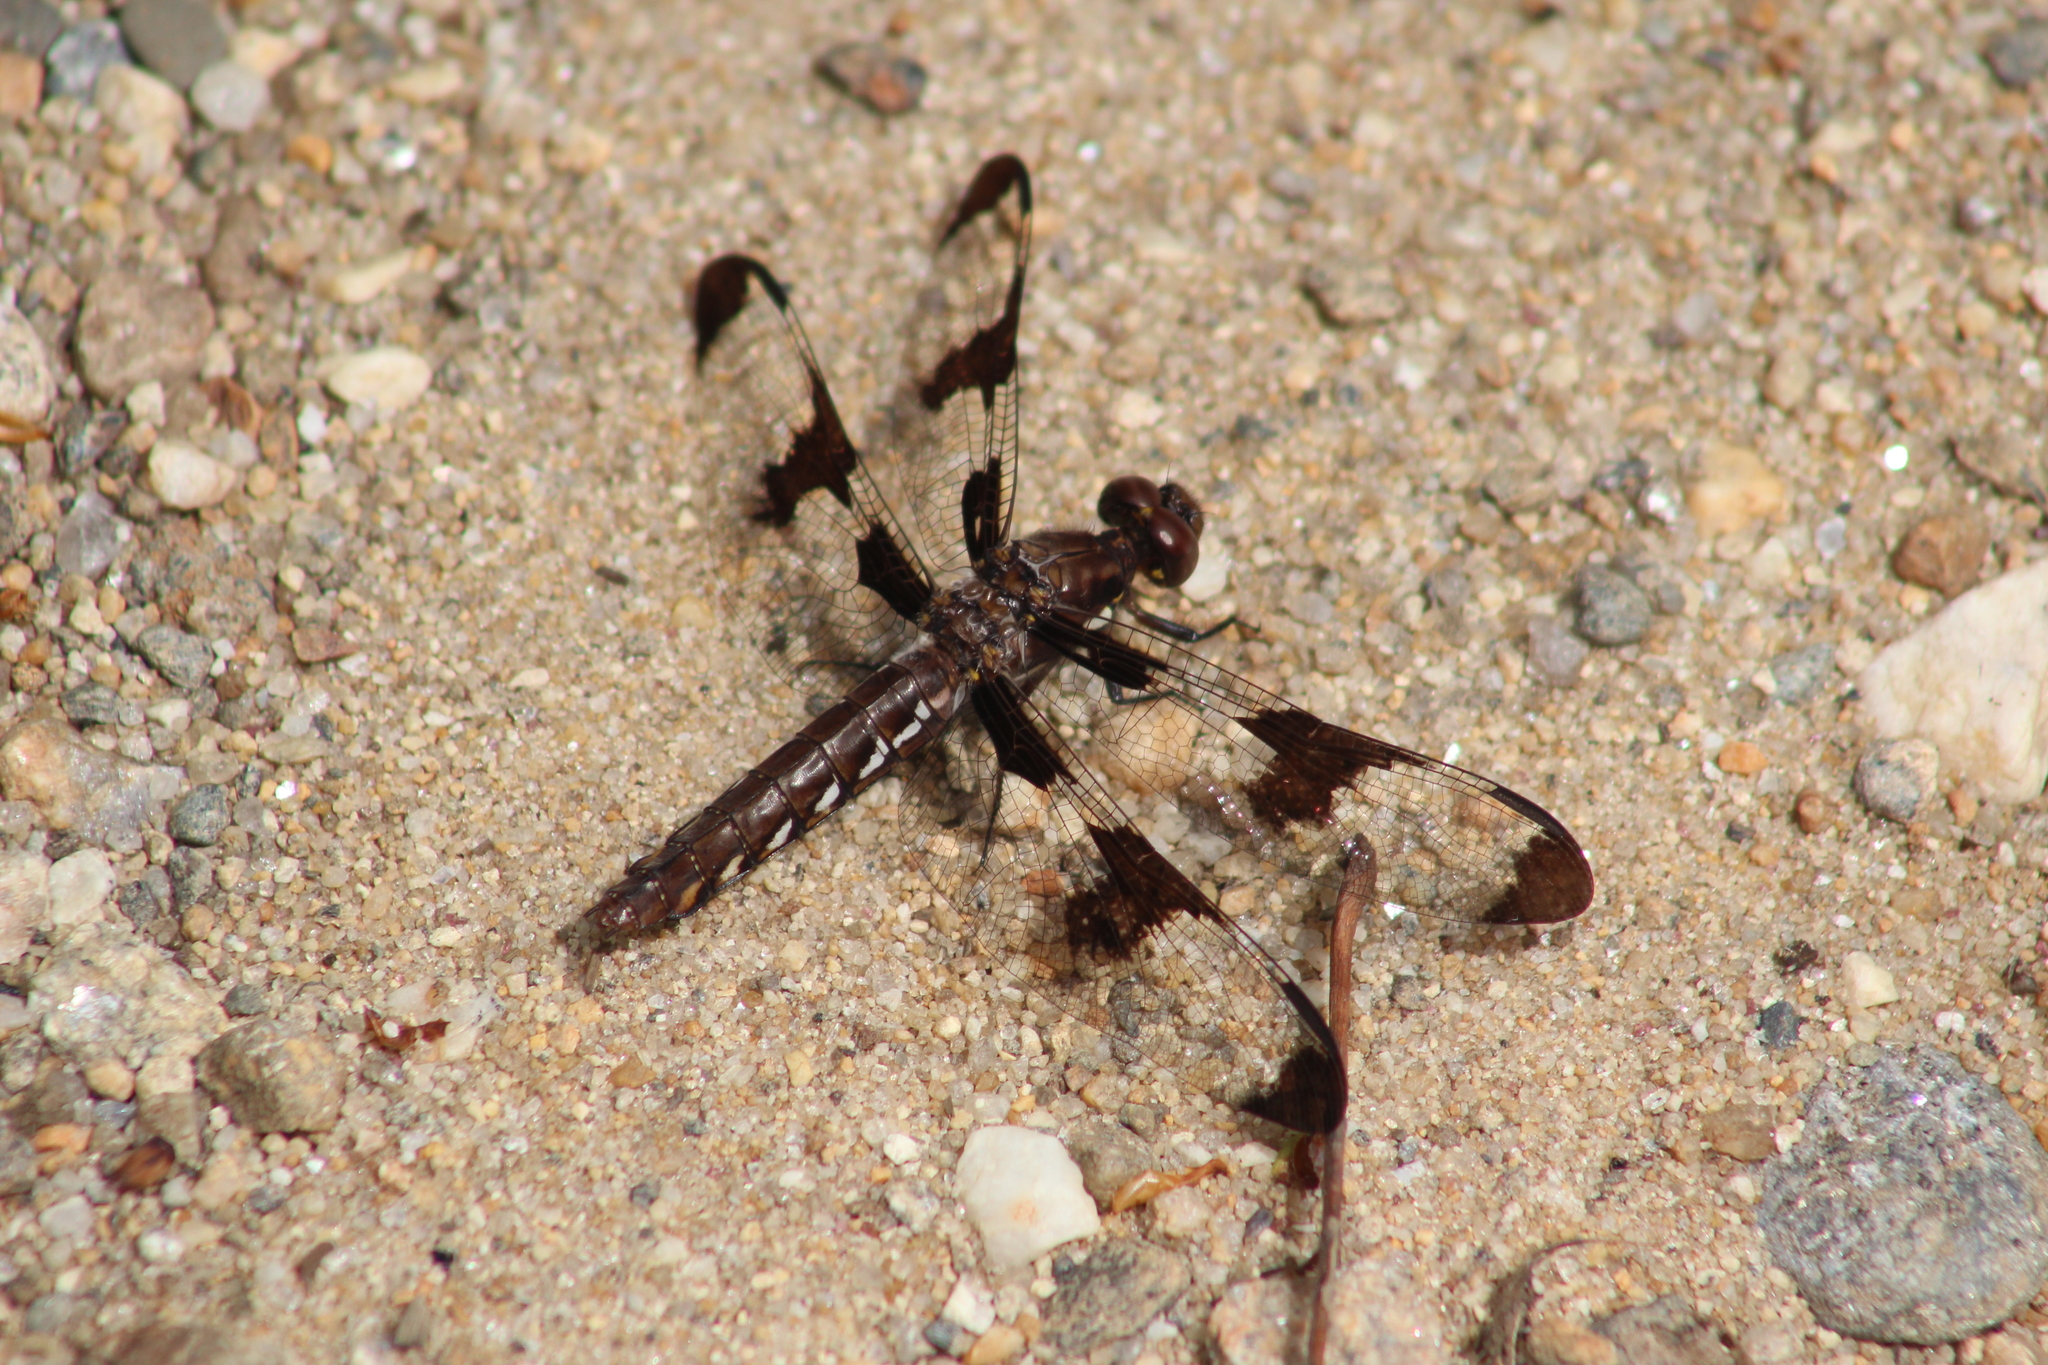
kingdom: Animalia
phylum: Arthropoda
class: Insecta
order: Odonata
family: Libellulidae
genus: Plathemis
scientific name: Plathemis lydia
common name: Common whitetail
